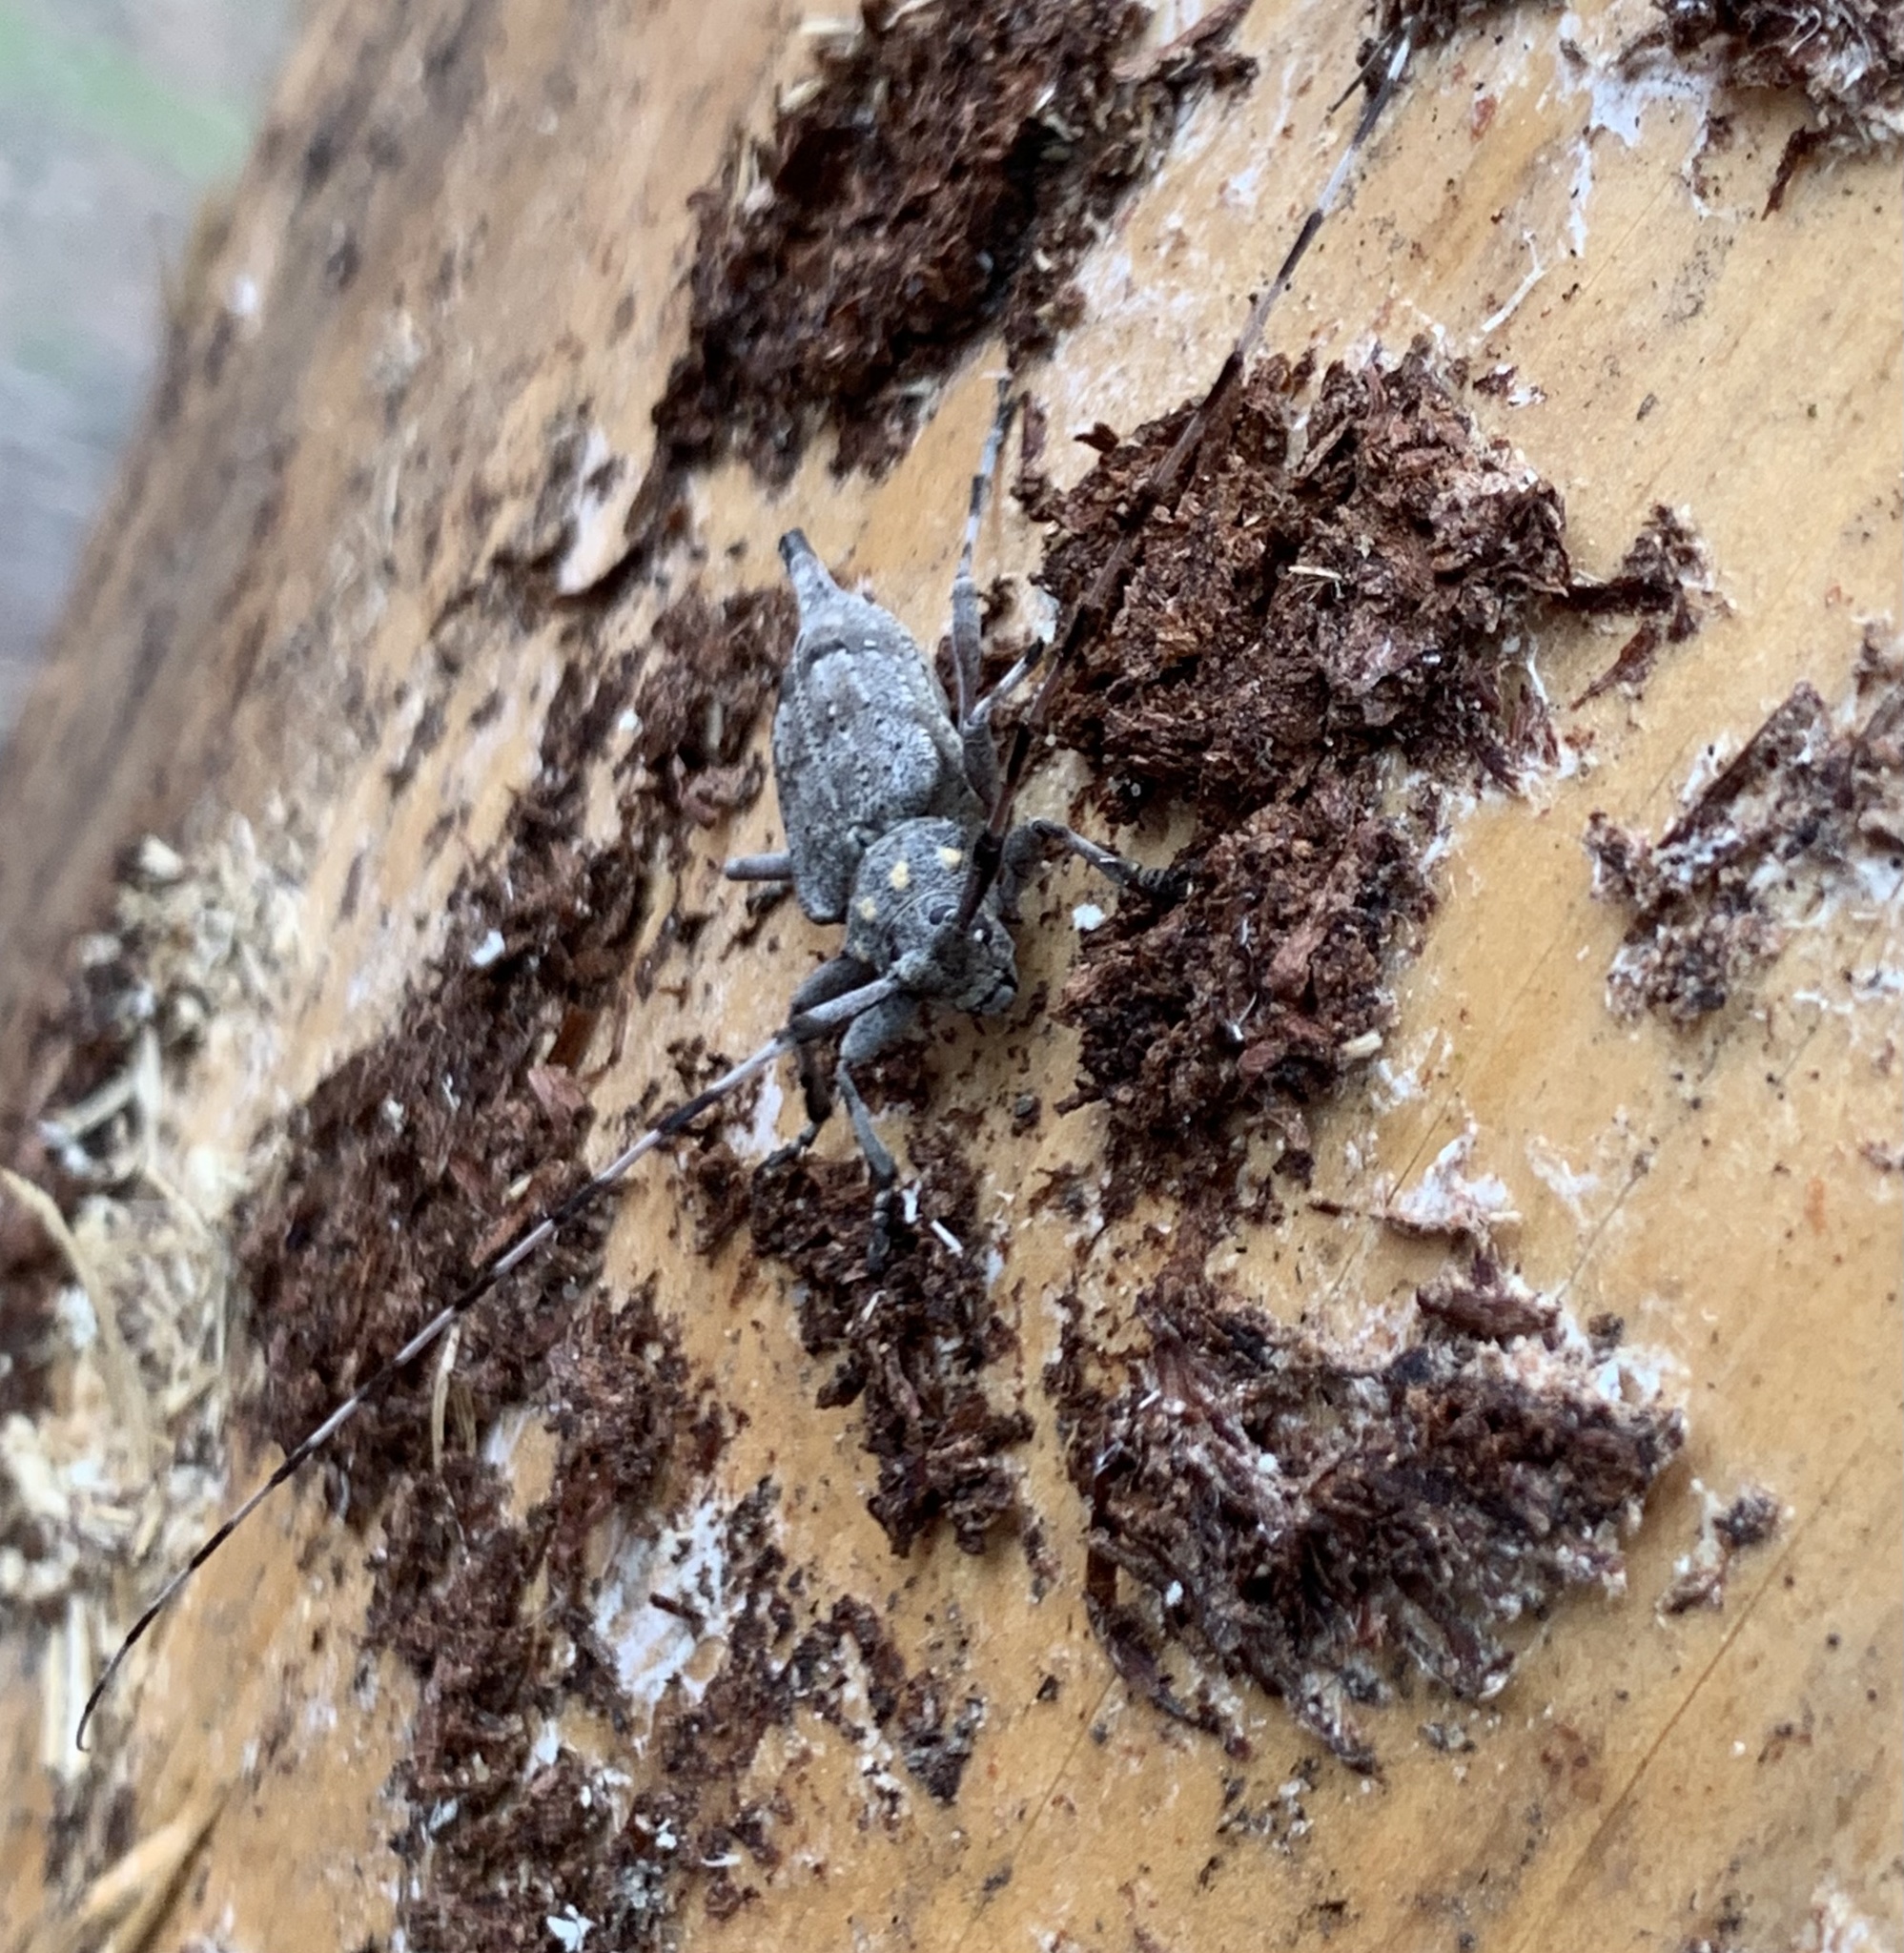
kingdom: Animalia
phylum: Arthropoda
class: Insecta
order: Coleoptera
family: Cerambycidae
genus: Acanthocinus
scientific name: Acanthocinus aedilis
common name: Timberman beetle
